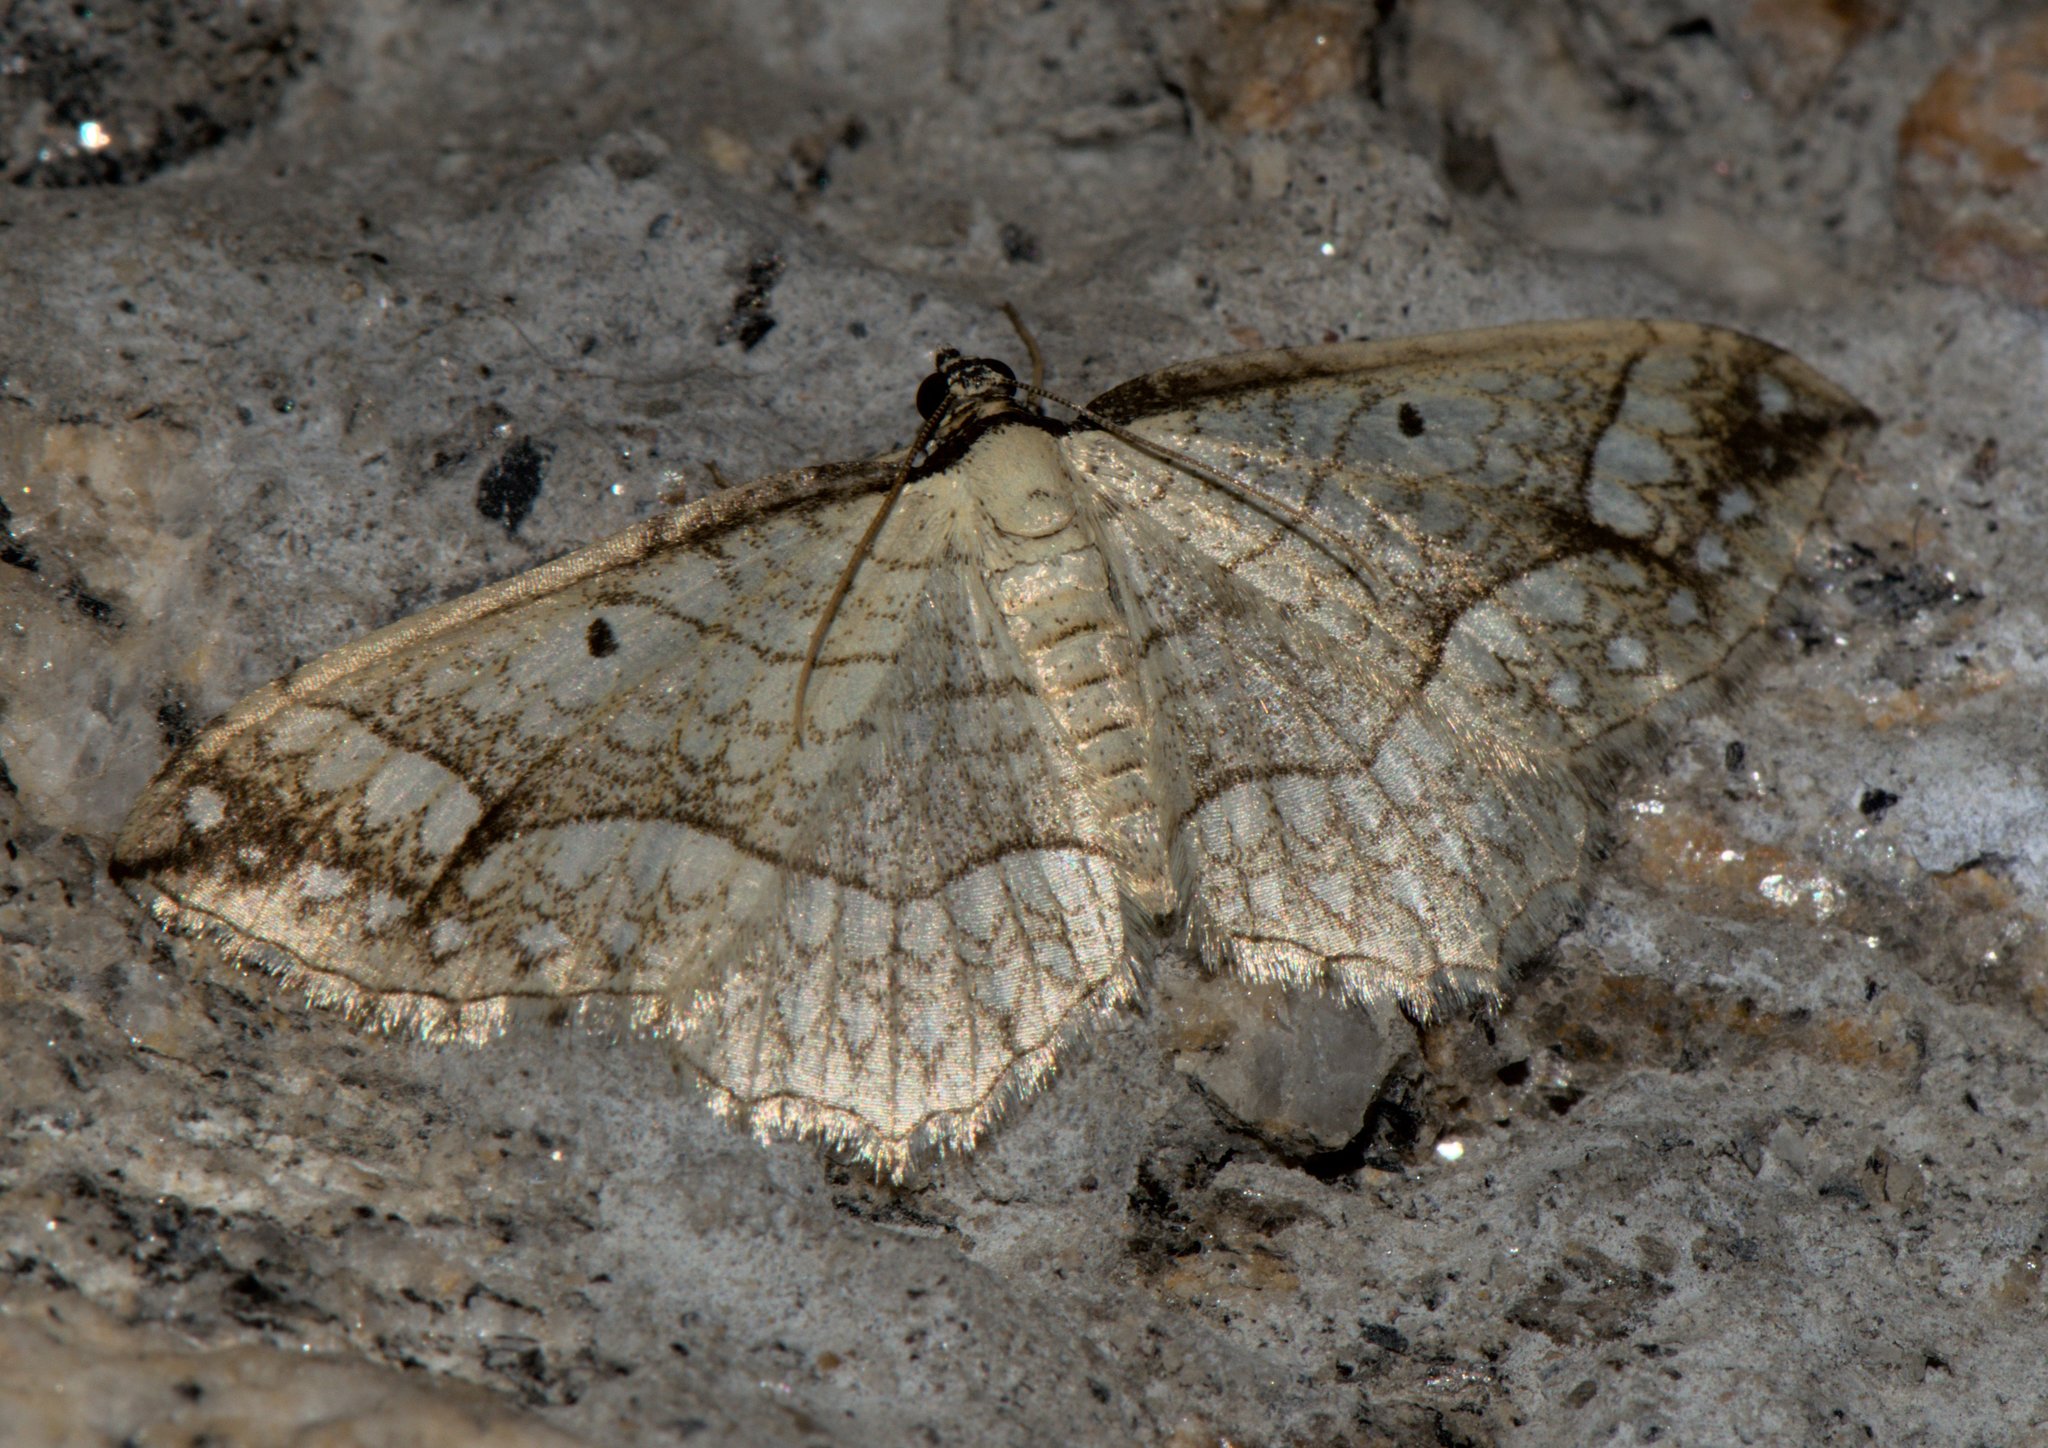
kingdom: Animalia
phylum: Arthropoda
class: Insecta
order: Lepidoptera
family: Geometridae
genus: Laciniodes
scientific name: Laciniodes plurilinearia
